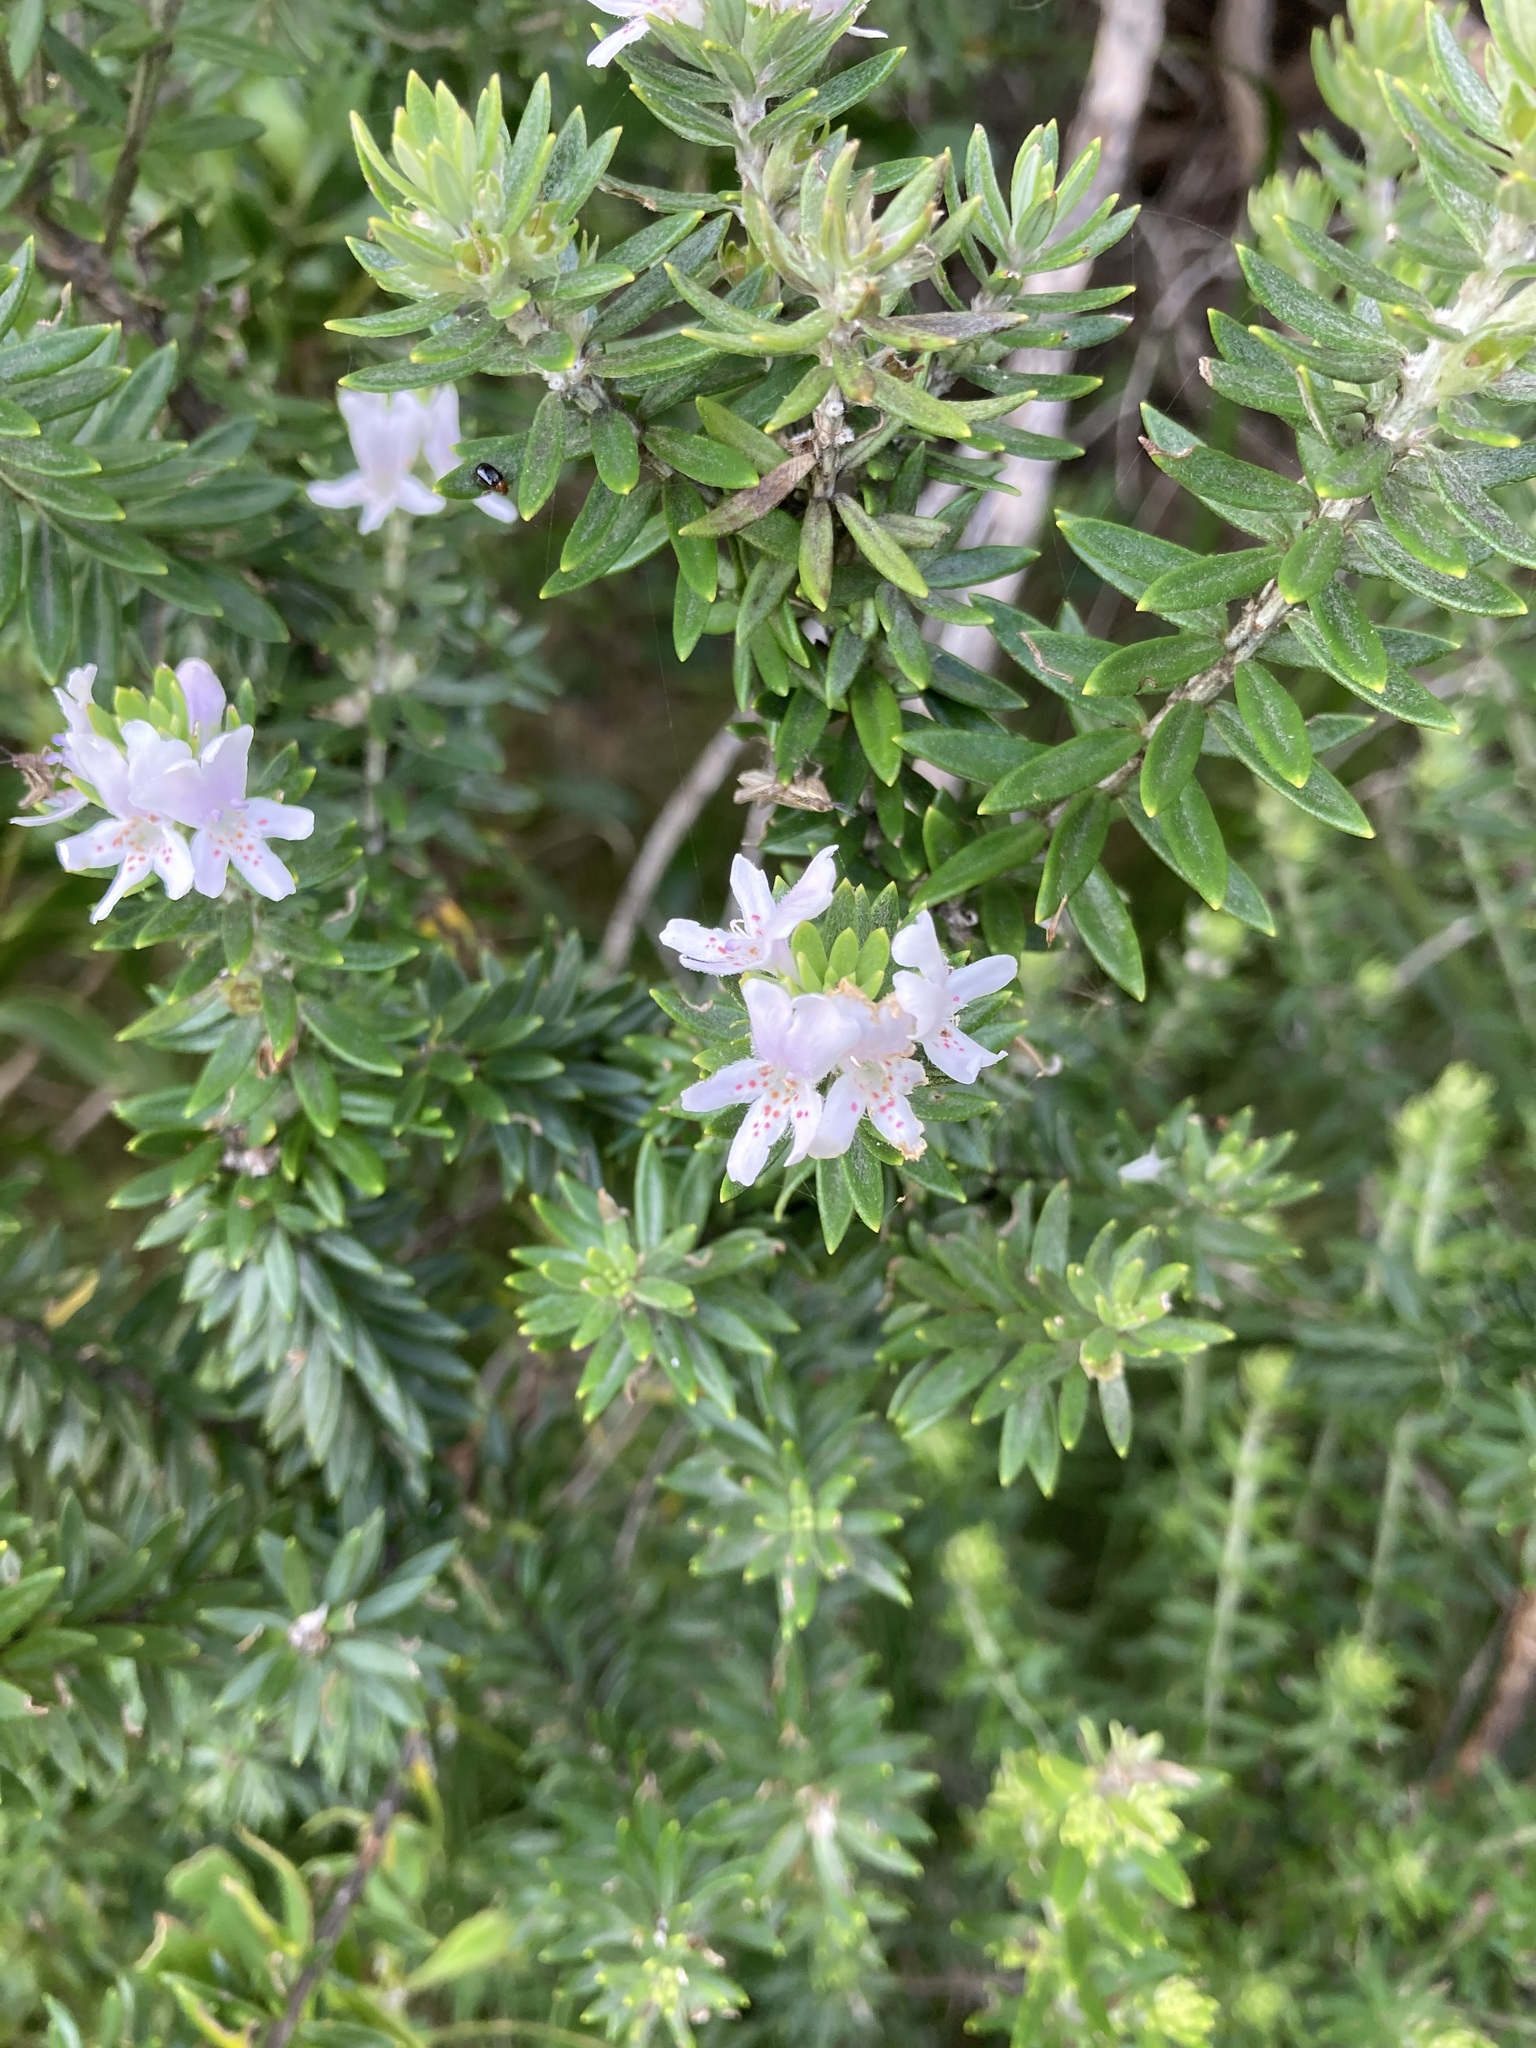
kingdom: Plantae
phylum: Tracheophyta
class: Magnoliopsida
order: Lamiales
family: Lamiaceae
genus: Westringia
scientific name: Westringia fruticosa
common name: Coastal-rosemary
